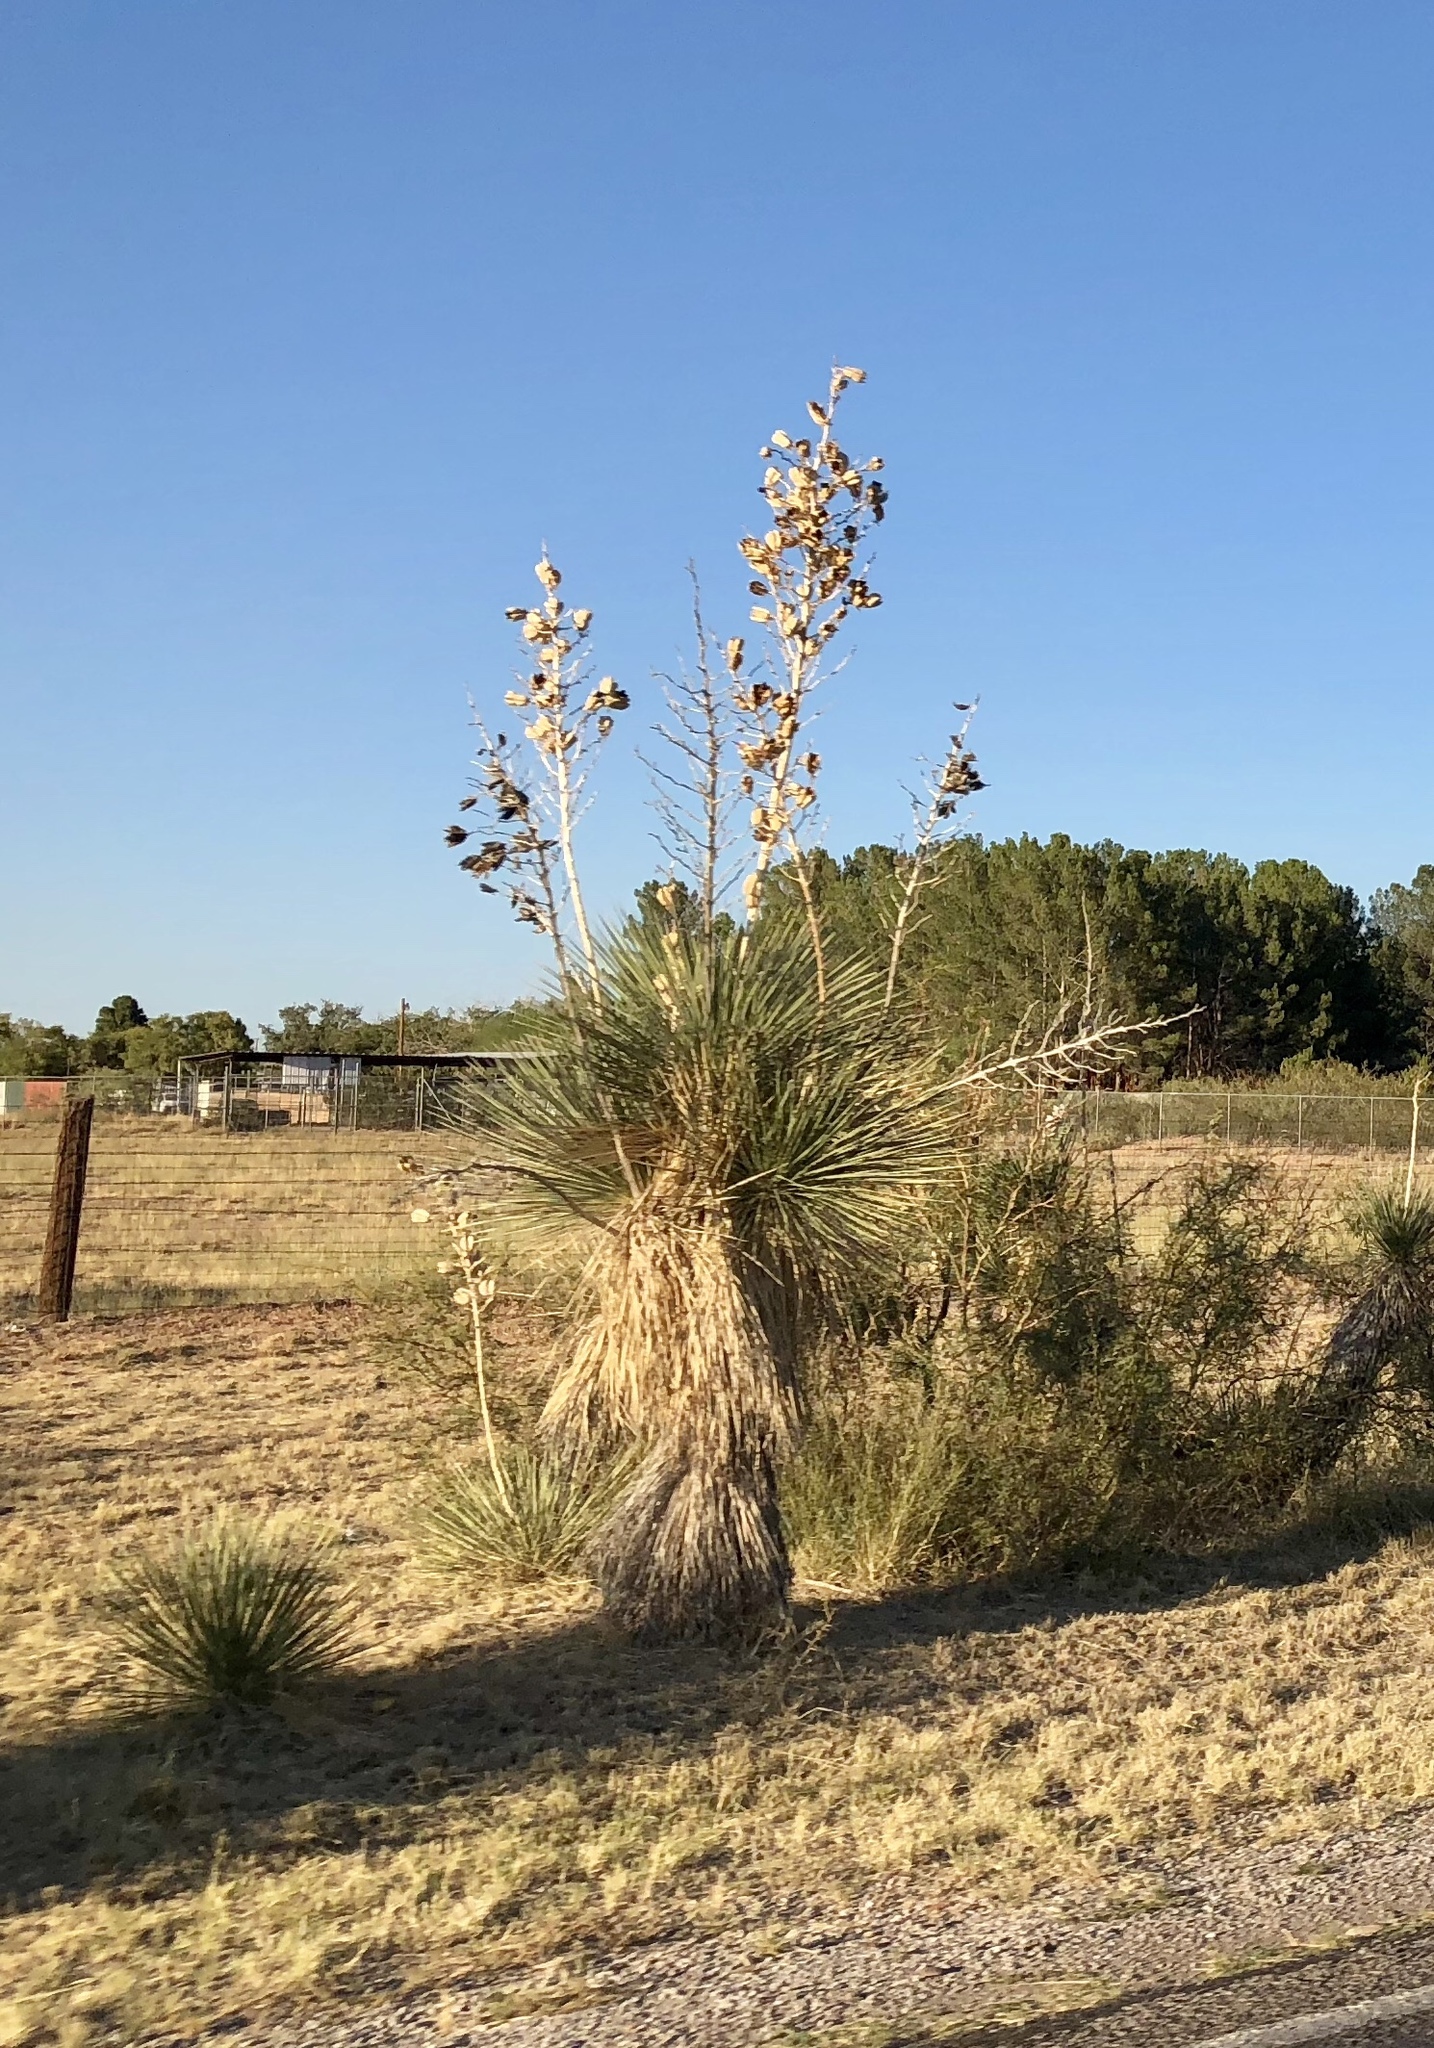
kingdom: Plantae
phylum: Tracheophyta
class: Liliopsida
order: Asparagales
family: Asparagaceae
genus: Yucca
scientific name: Yucca elata
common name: Palmella
